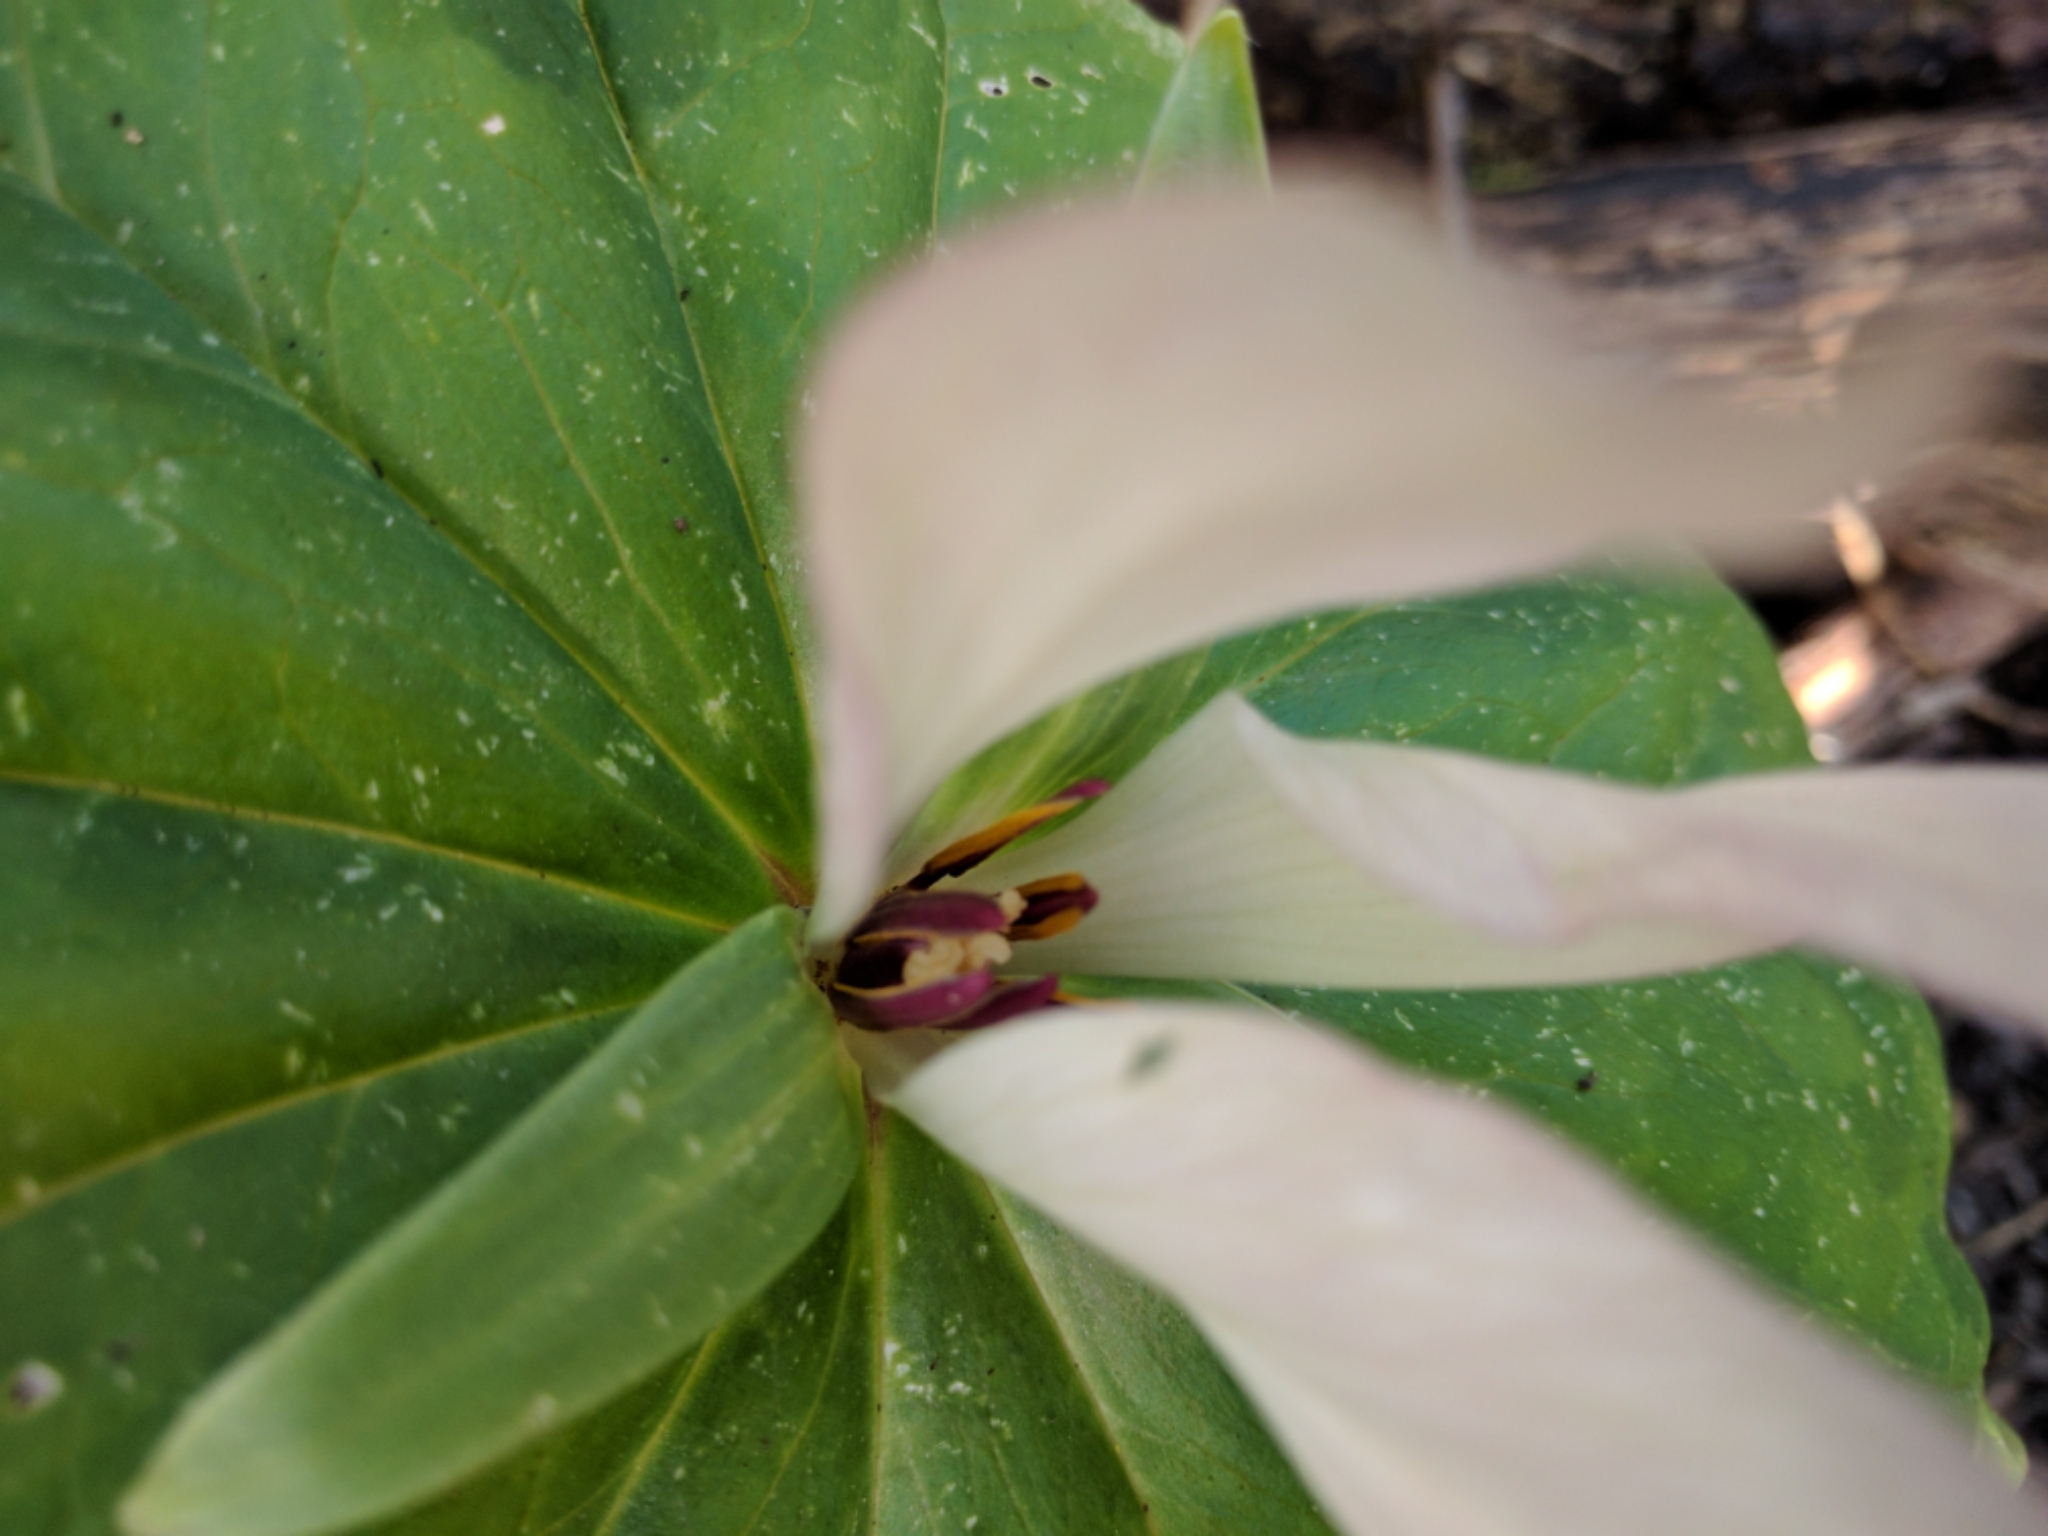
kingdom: Plantae
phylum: Tracheophyta
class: Liliopsida
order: Liliales
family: Melanthiaceae
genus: Trillium
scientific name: Trillium chloropetalum
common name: Giant trillium
